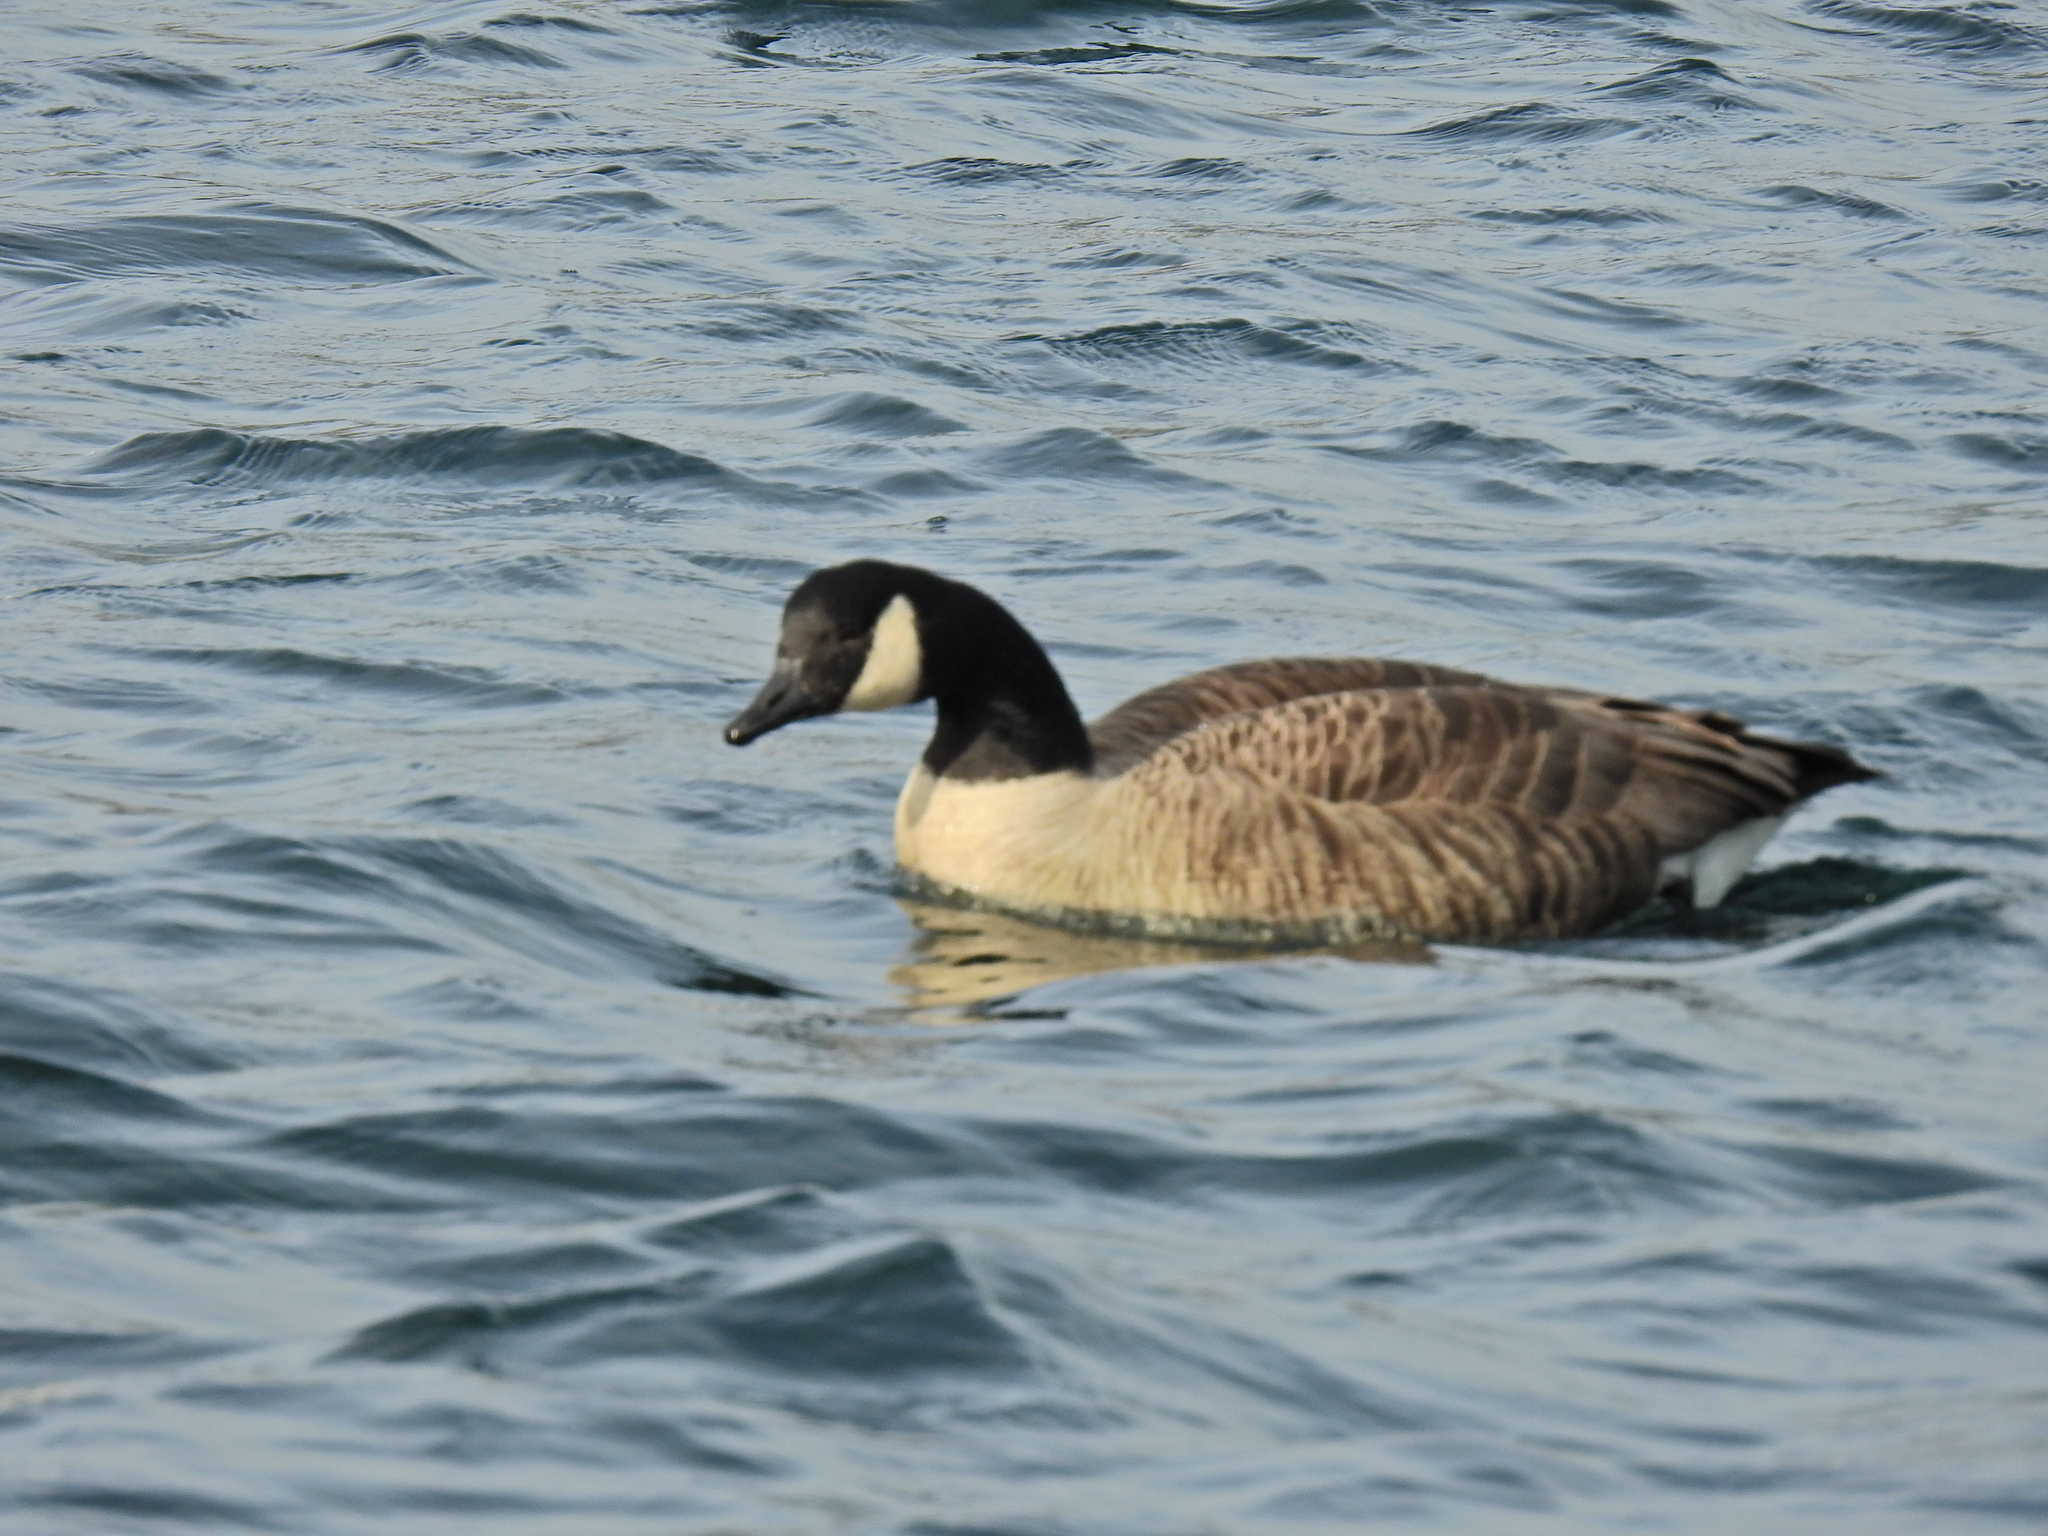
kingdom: Animalia
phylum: Chordata
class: Aves
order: Anseriformes
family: Anatidae
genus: Branta
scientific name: Branta canadensis
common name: Canada goose
